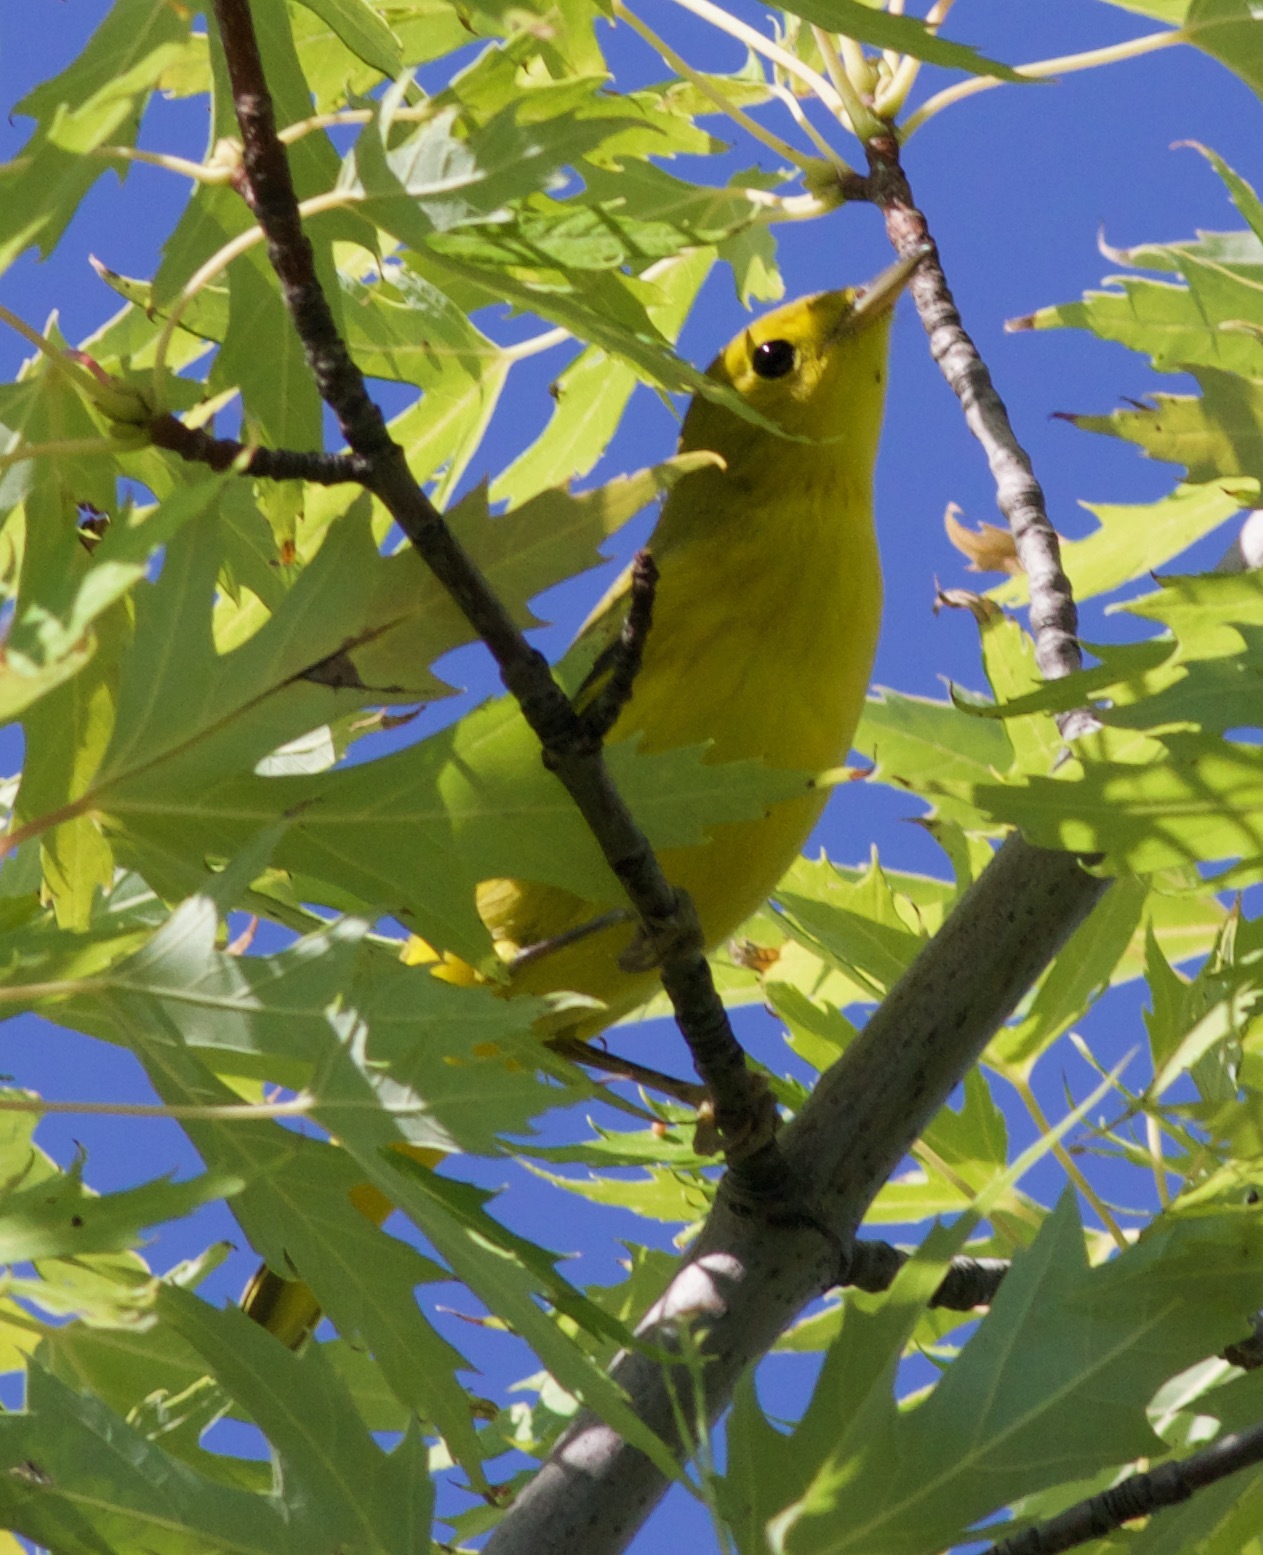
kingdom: Animalia
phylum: Chordata
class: Aves
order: Passeriformes
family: Parulidae
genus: Setophaga
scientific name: Setophaga petechia
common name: Yellow warbler
